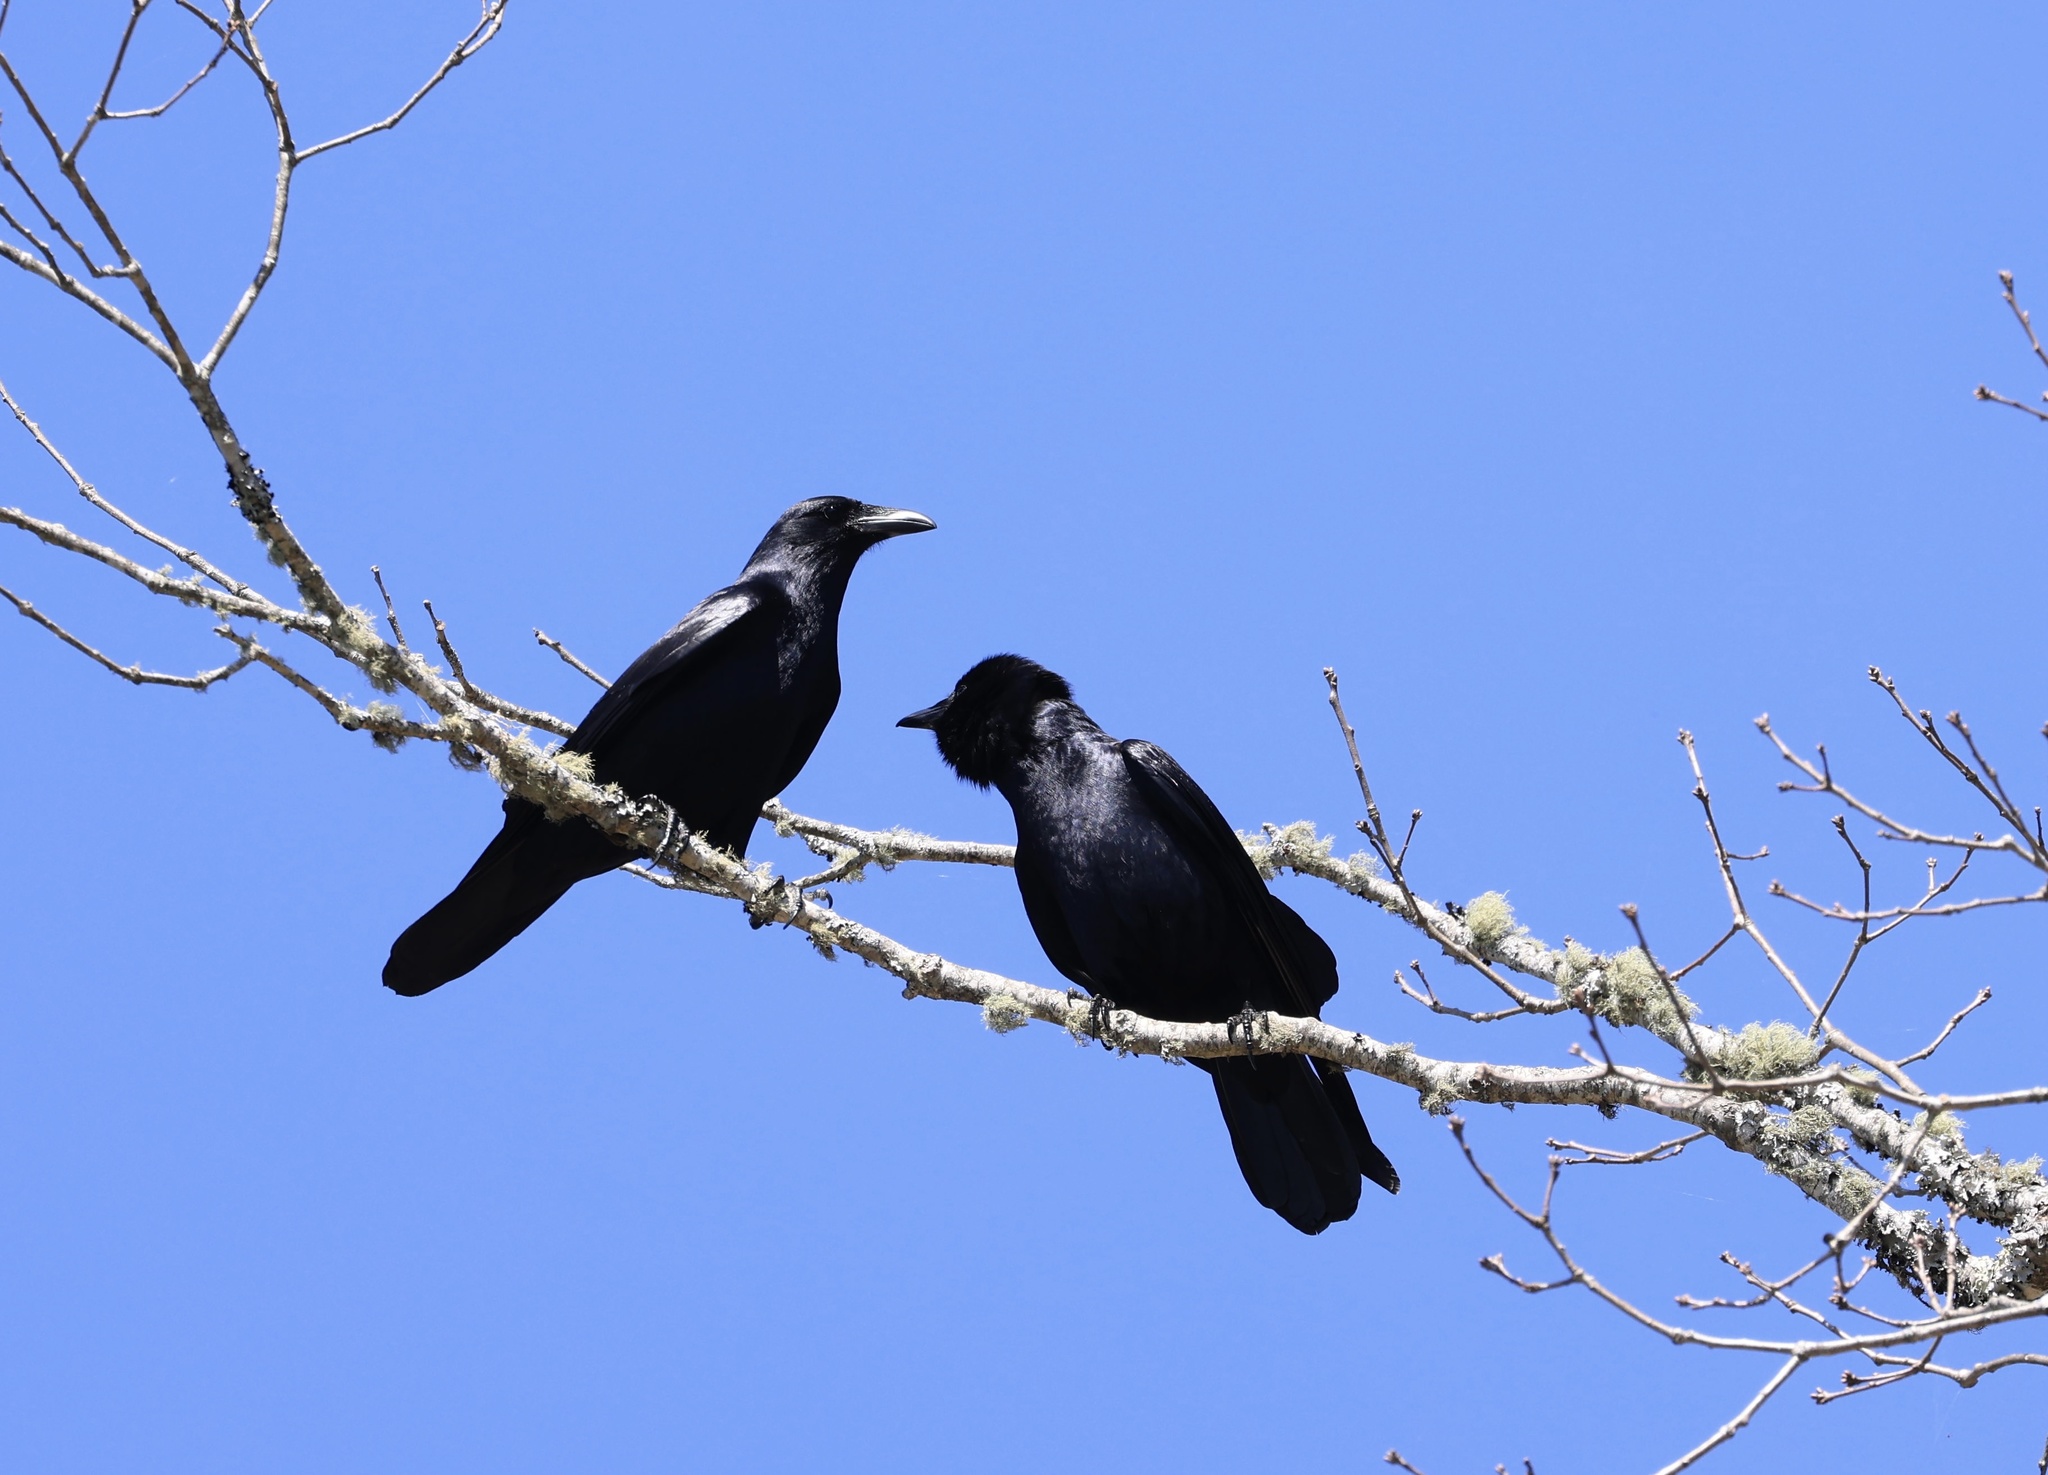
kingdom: Animalia
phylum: Chordata
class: Aves
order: Passeriformes
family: Corvidae
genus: Corvus
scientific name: Corvus
